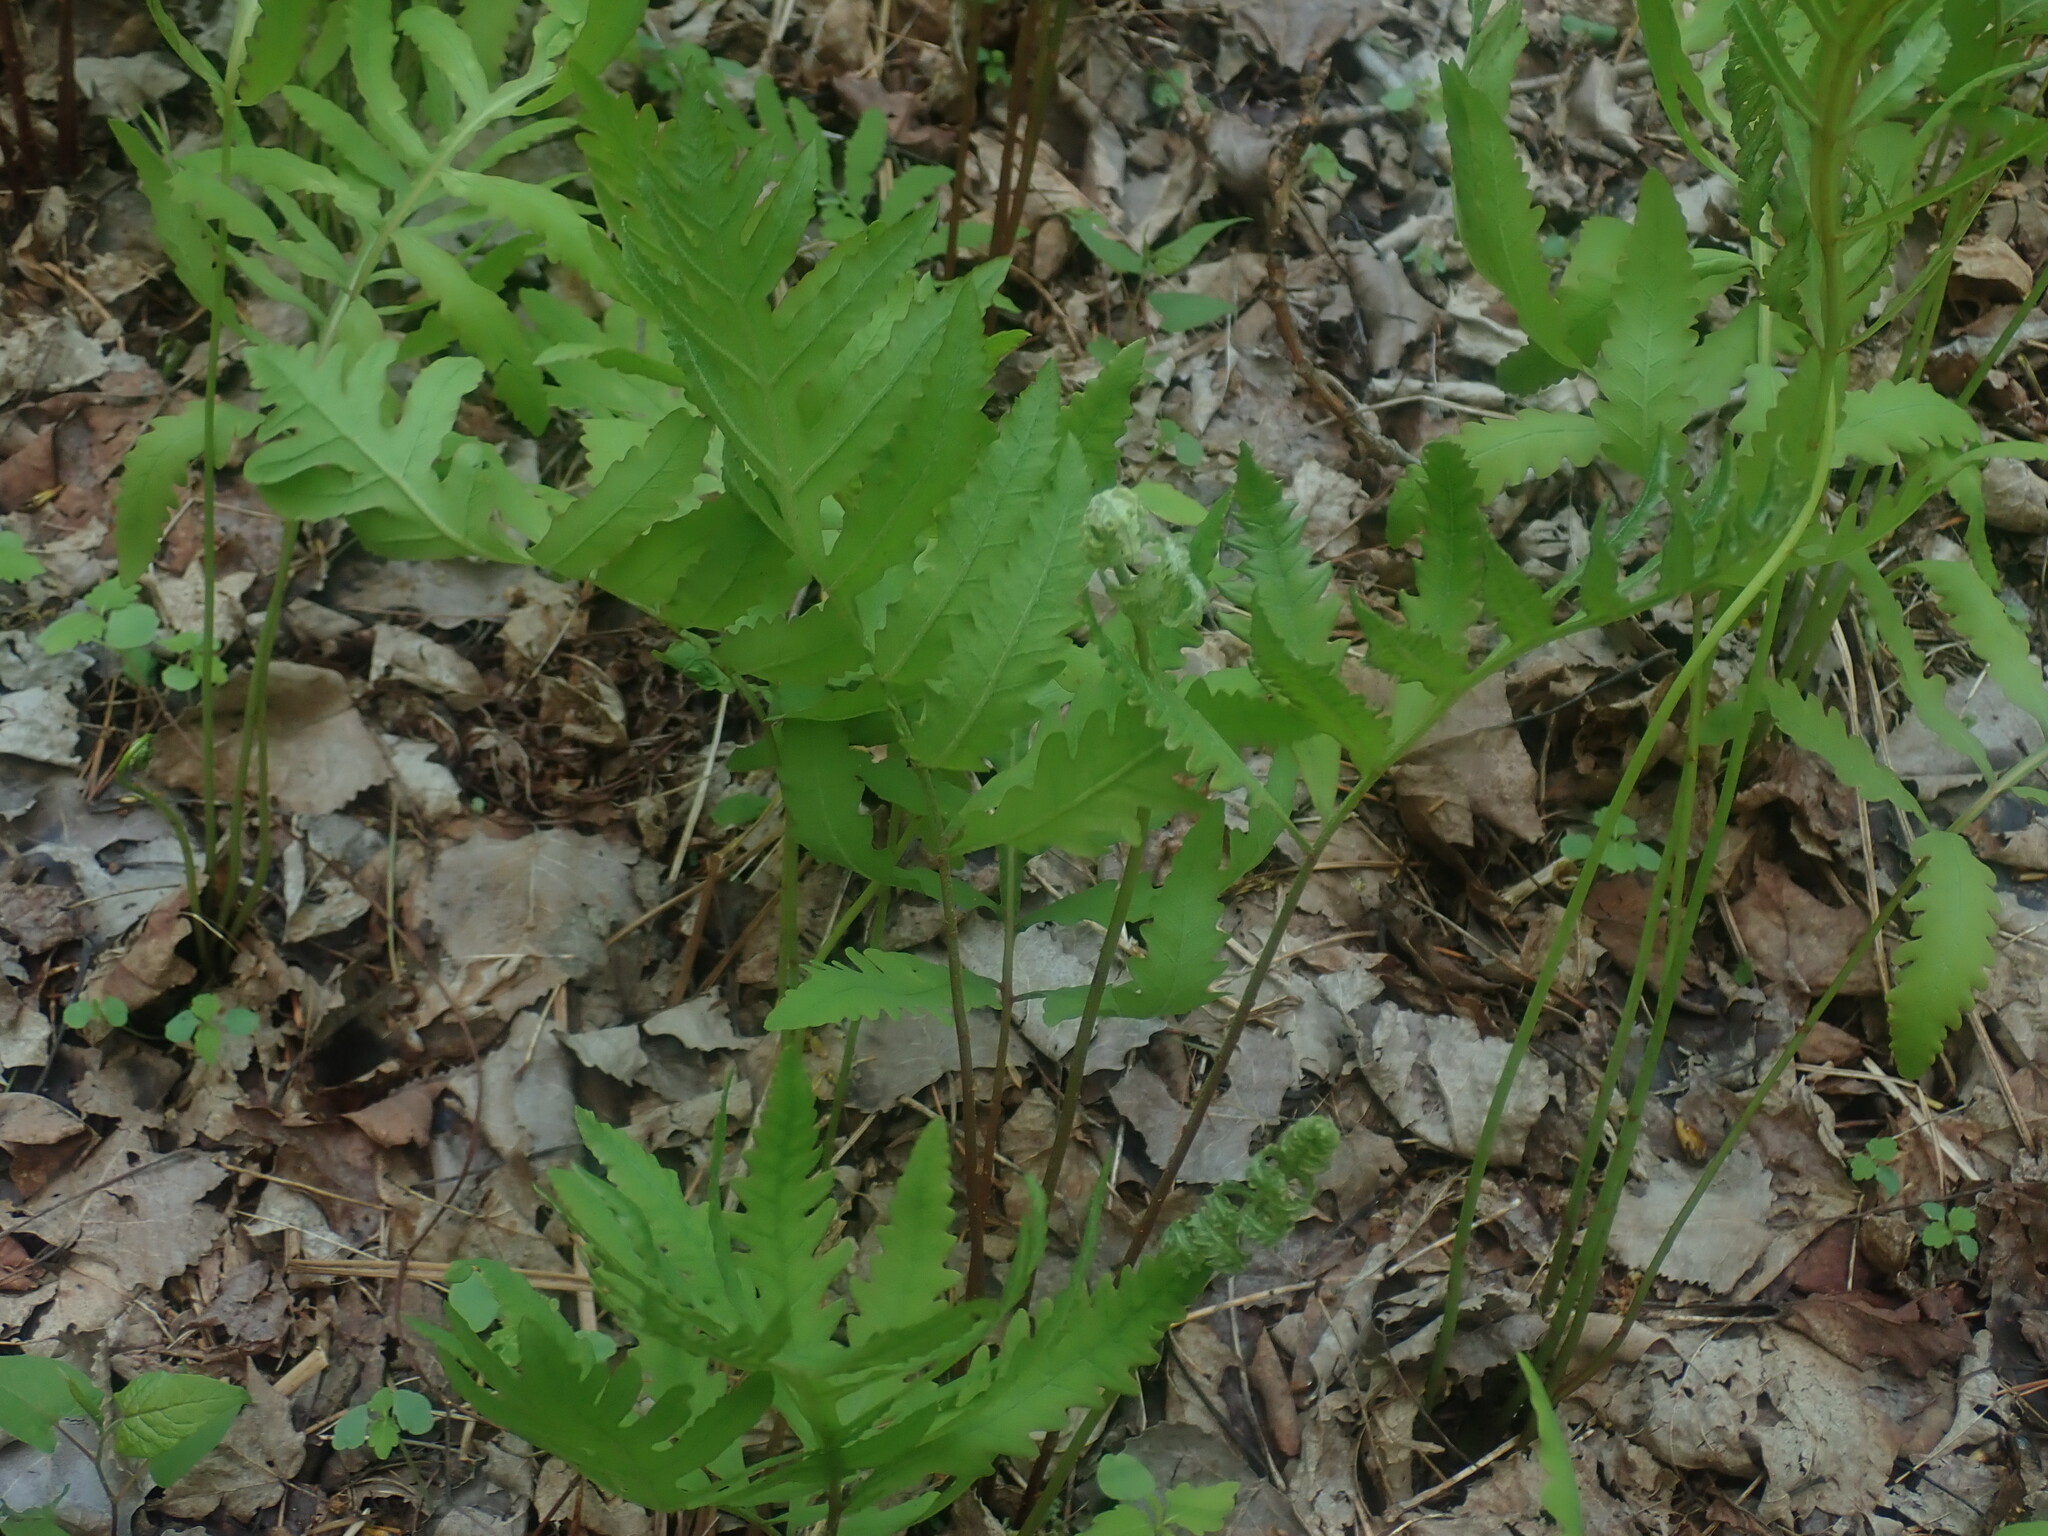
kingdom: Plantae
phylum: Tracheophyta
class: Polypodiopsida
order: Polypodiales
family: Onocleaceae
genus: Onoclea
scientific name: Onoclea sensibilis
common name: Sensitive fern
